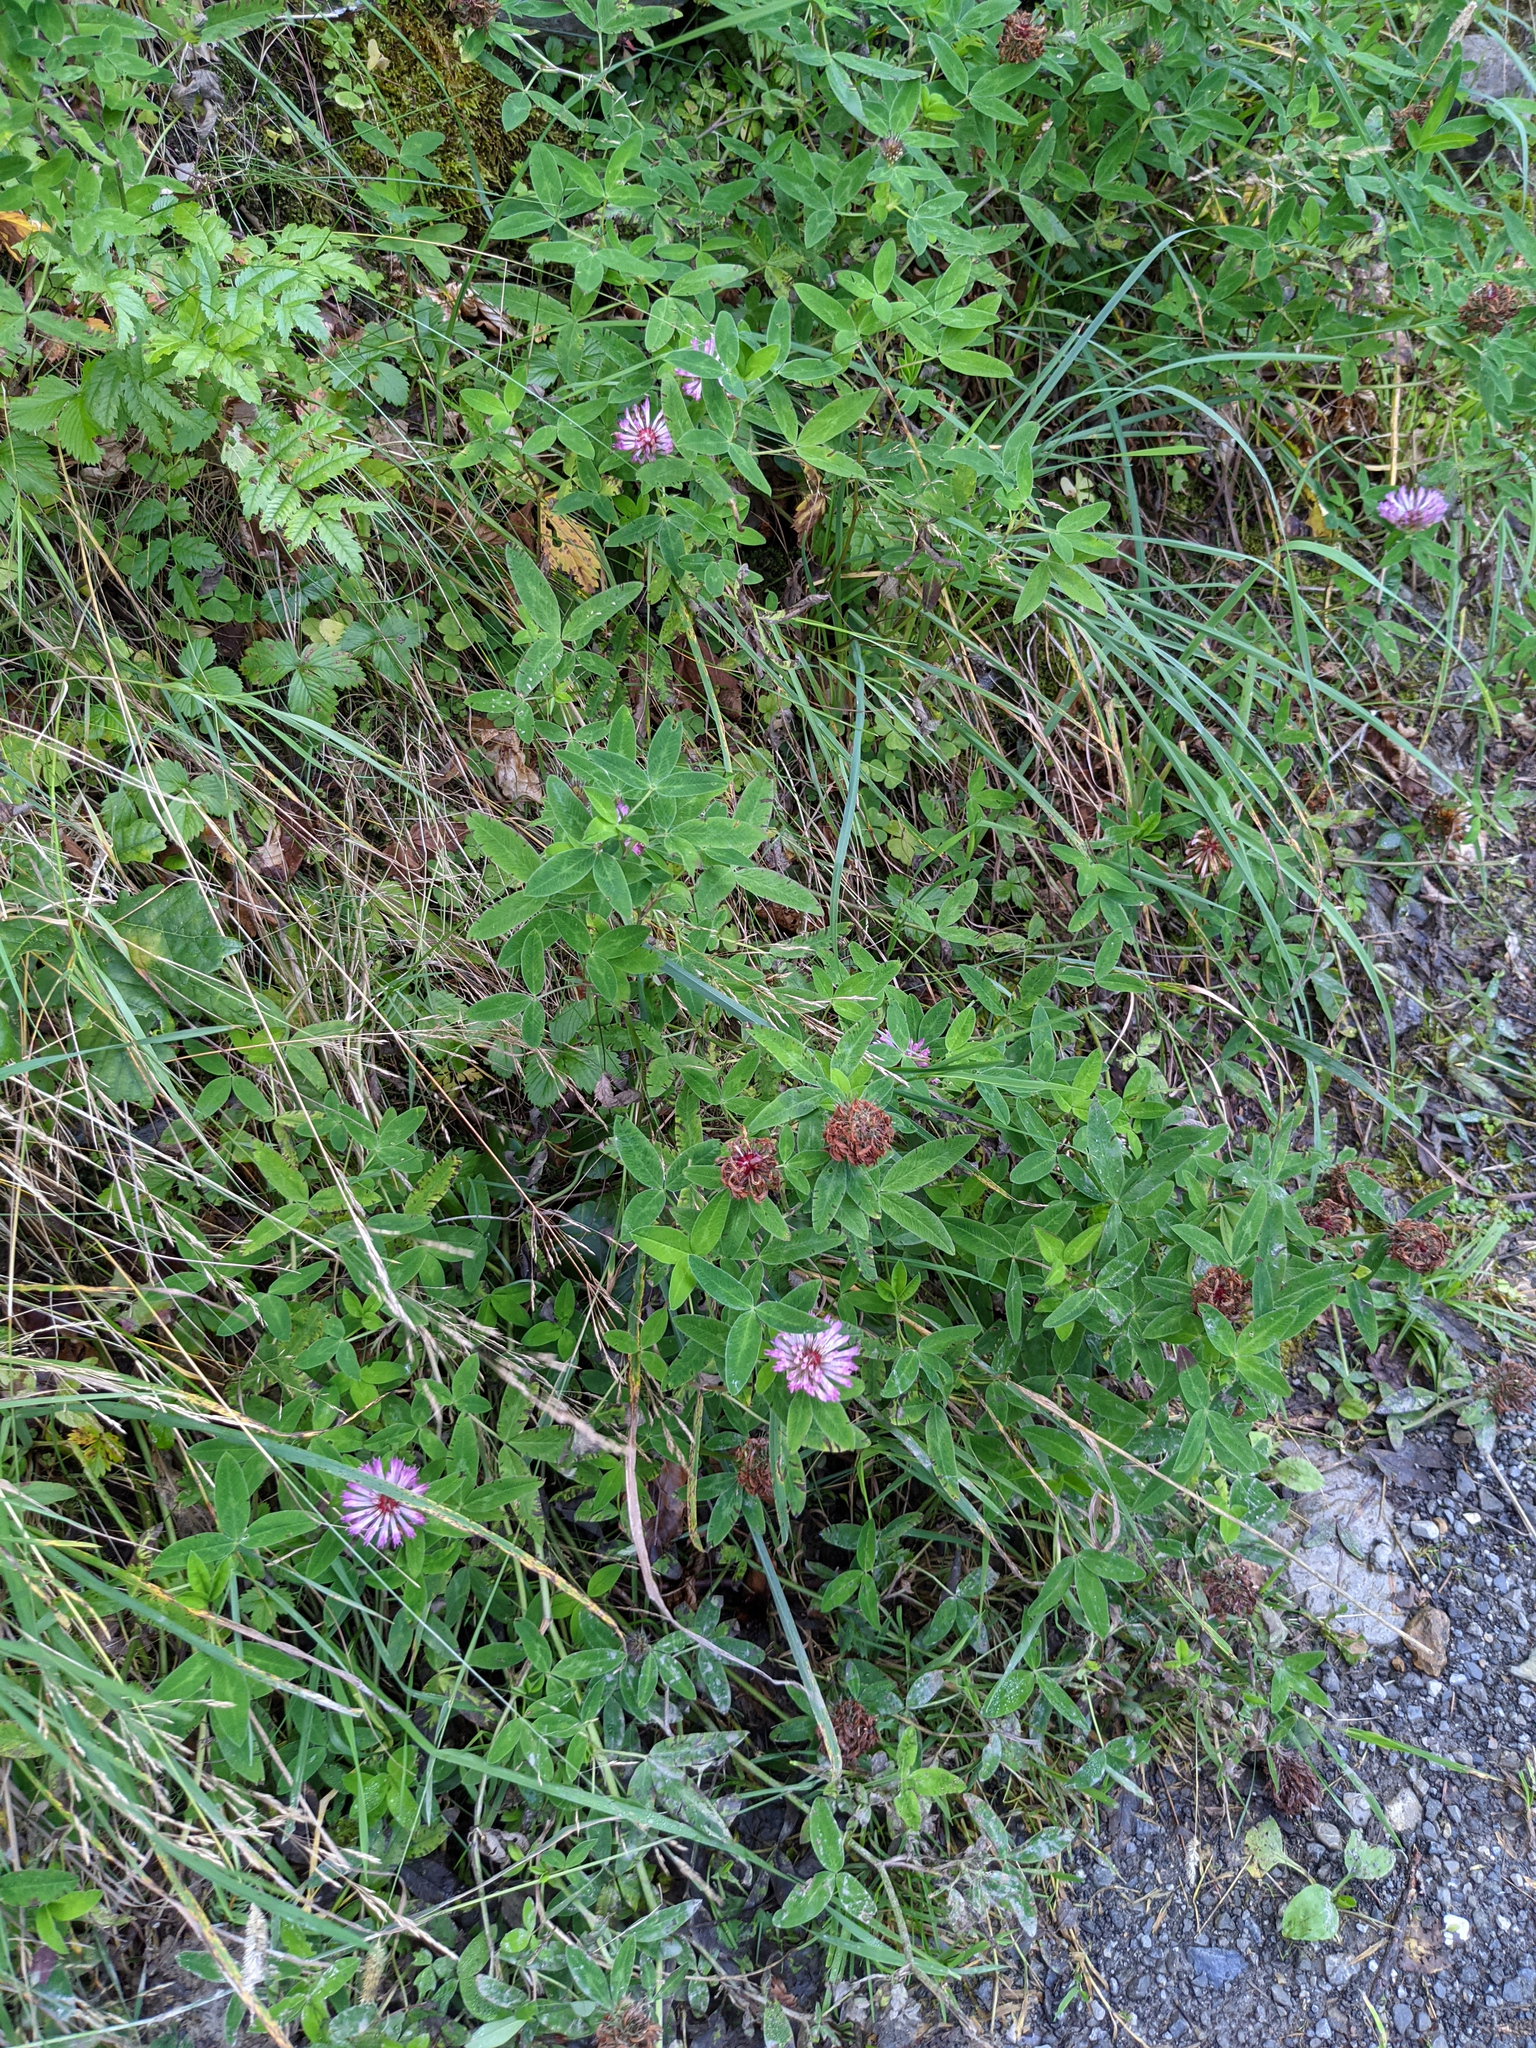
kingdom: Plantae
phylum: Tracheophyta
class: Magnoliopsida
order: Fabales
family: Fabaceae
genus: Trifolium
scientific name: Trifolium medium
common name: Zigzag clover
